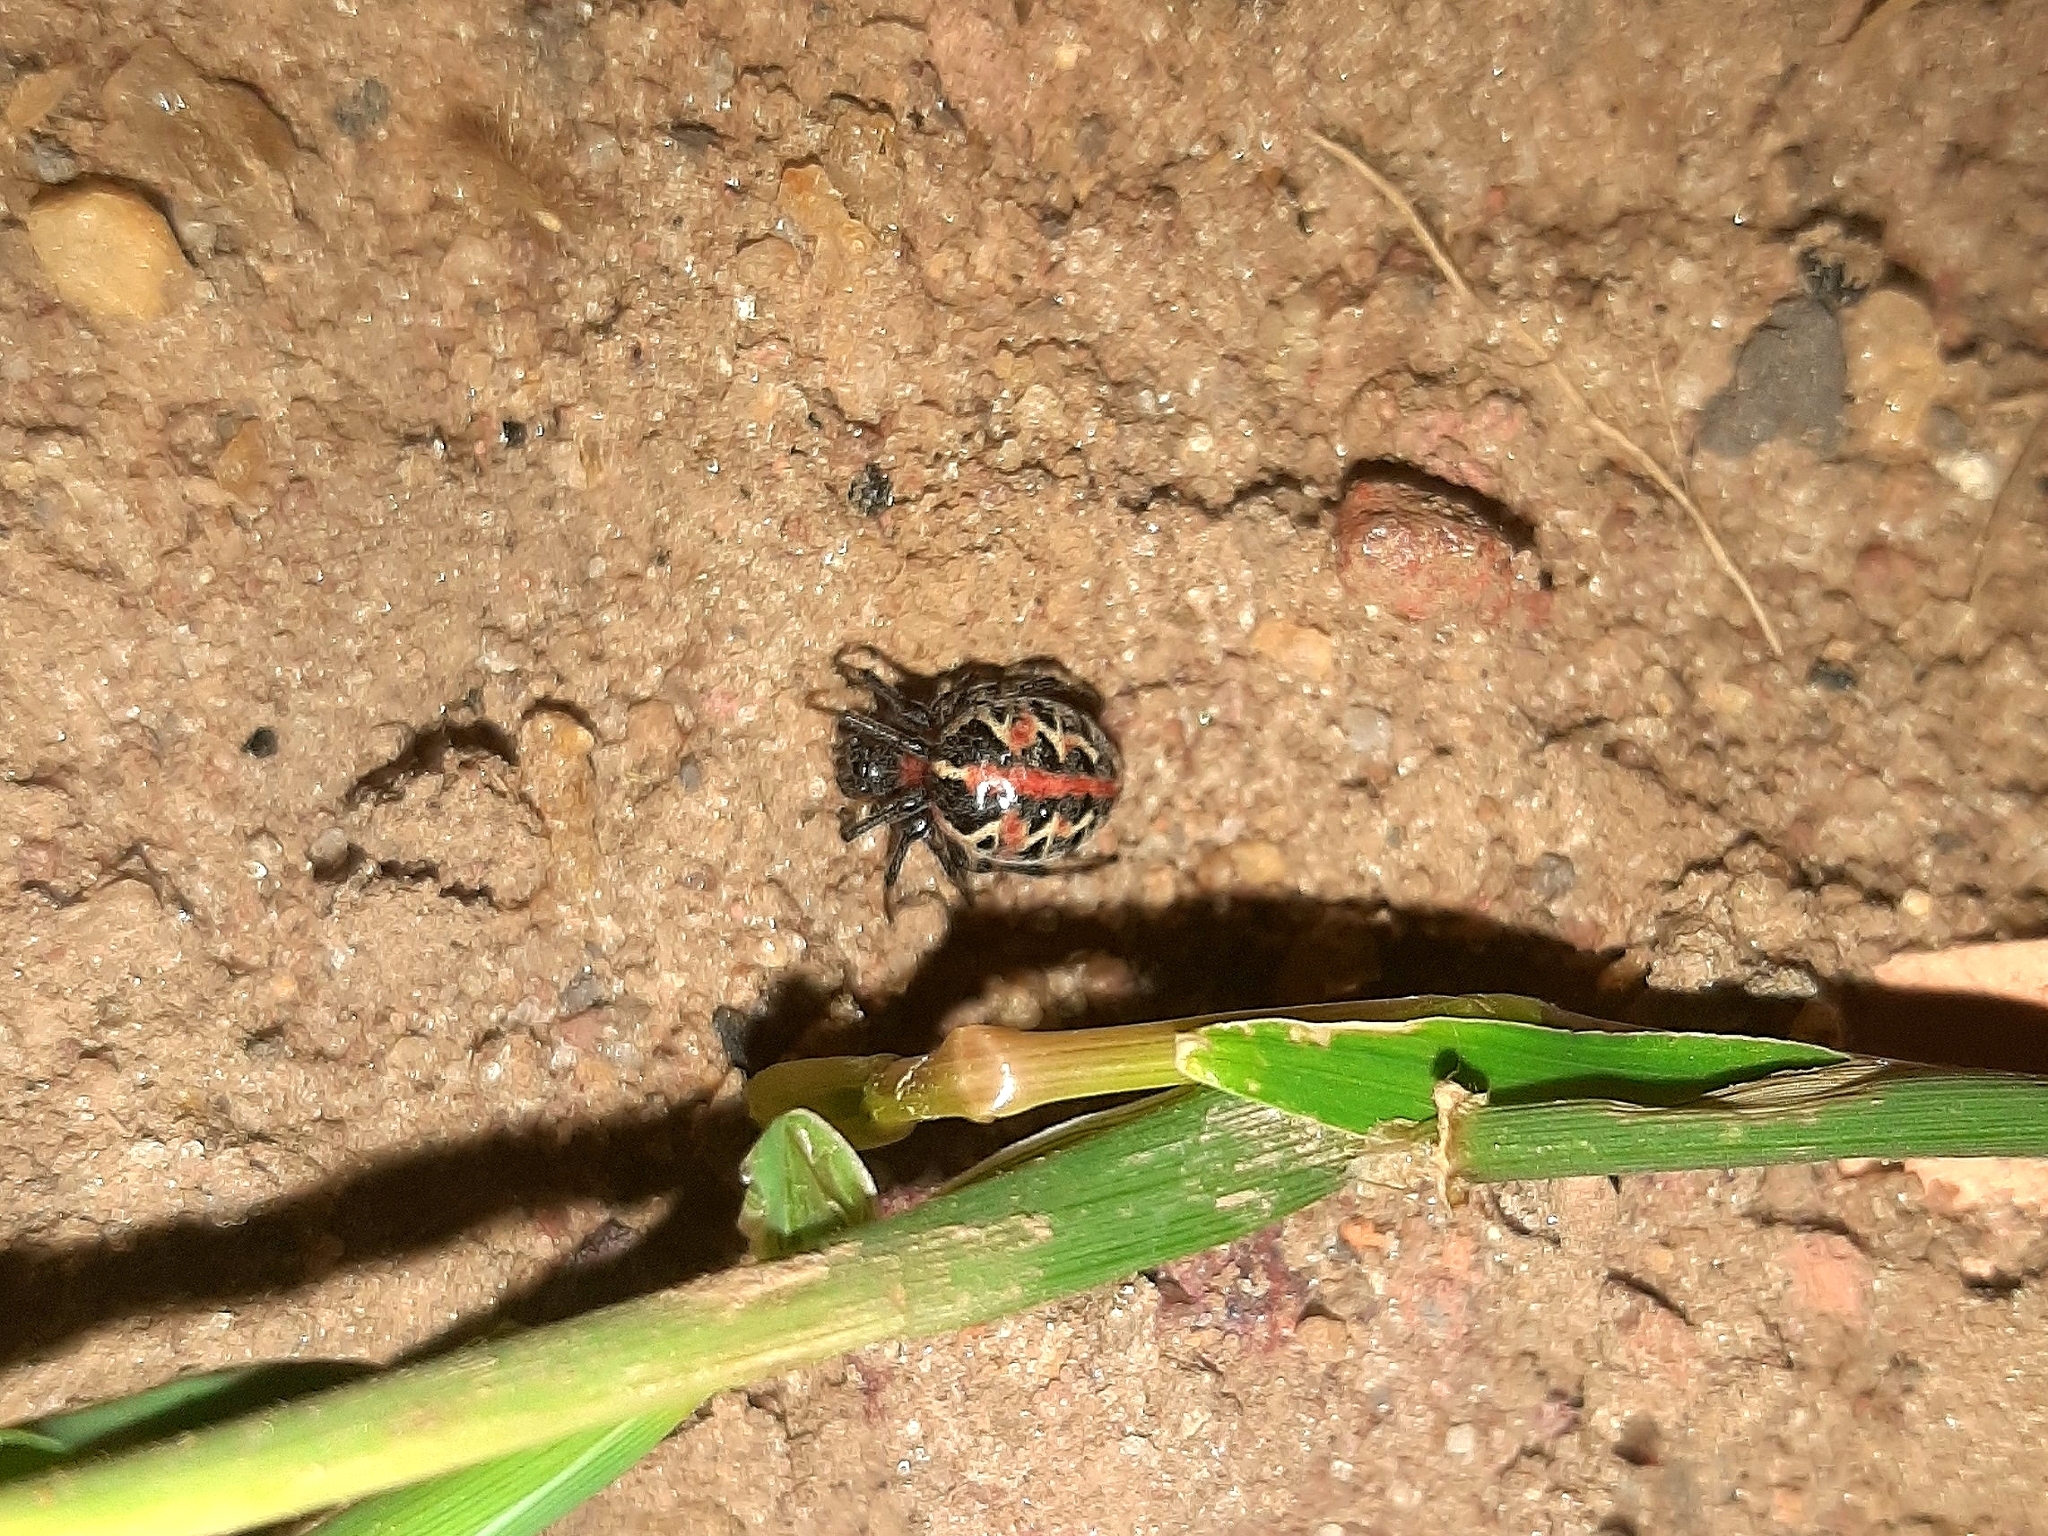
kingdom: Animalia
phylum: Arthropoda
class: Arachnida
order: Araneae
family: Araneidae
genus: Alpaida
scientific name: Alpaida versicolor
